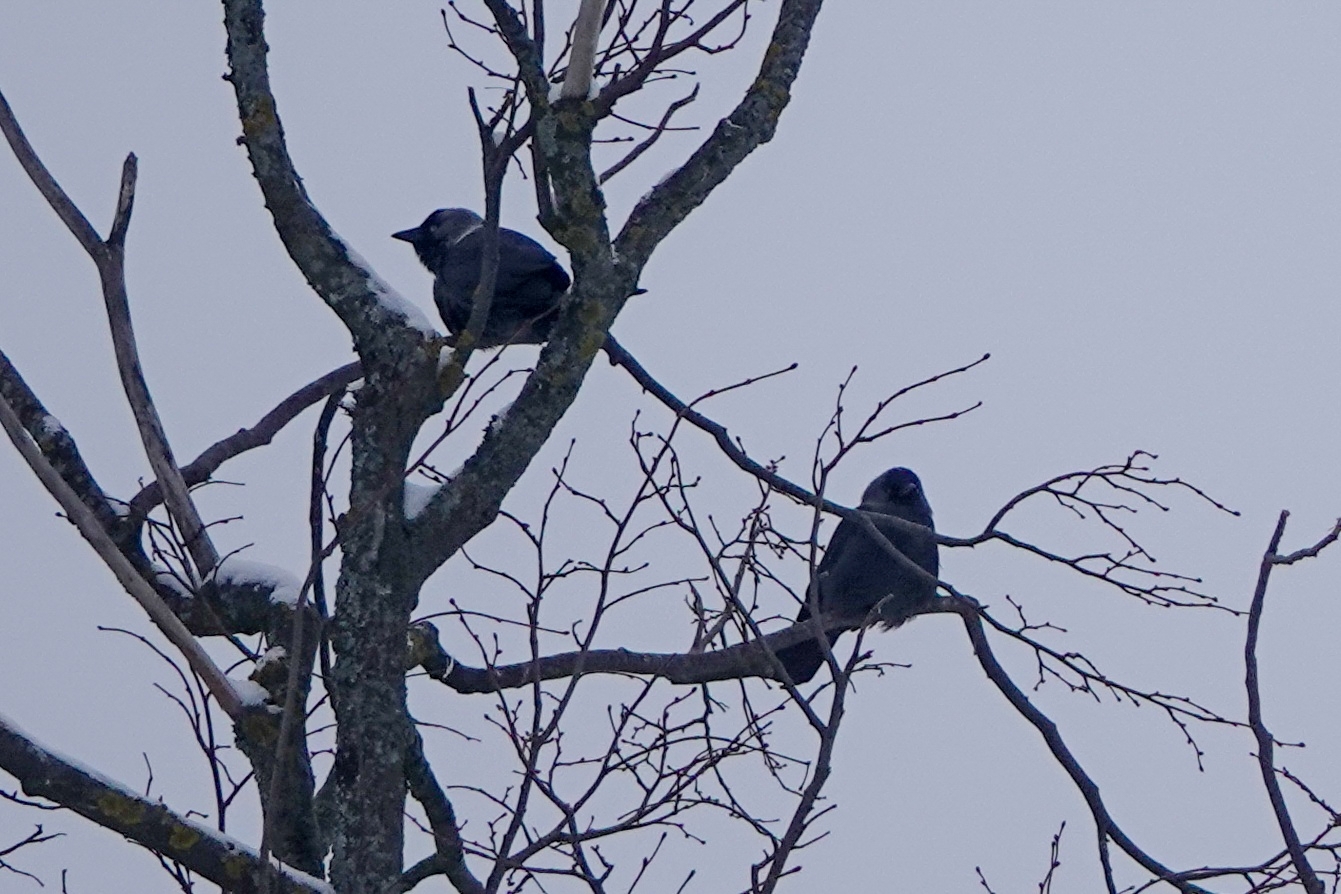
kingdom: Animalia
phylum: Chordata
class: Aves
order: Passeriformes
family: Corvidae
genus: Coloeus
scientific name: Coloeus monedula
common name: Western jackdaw
